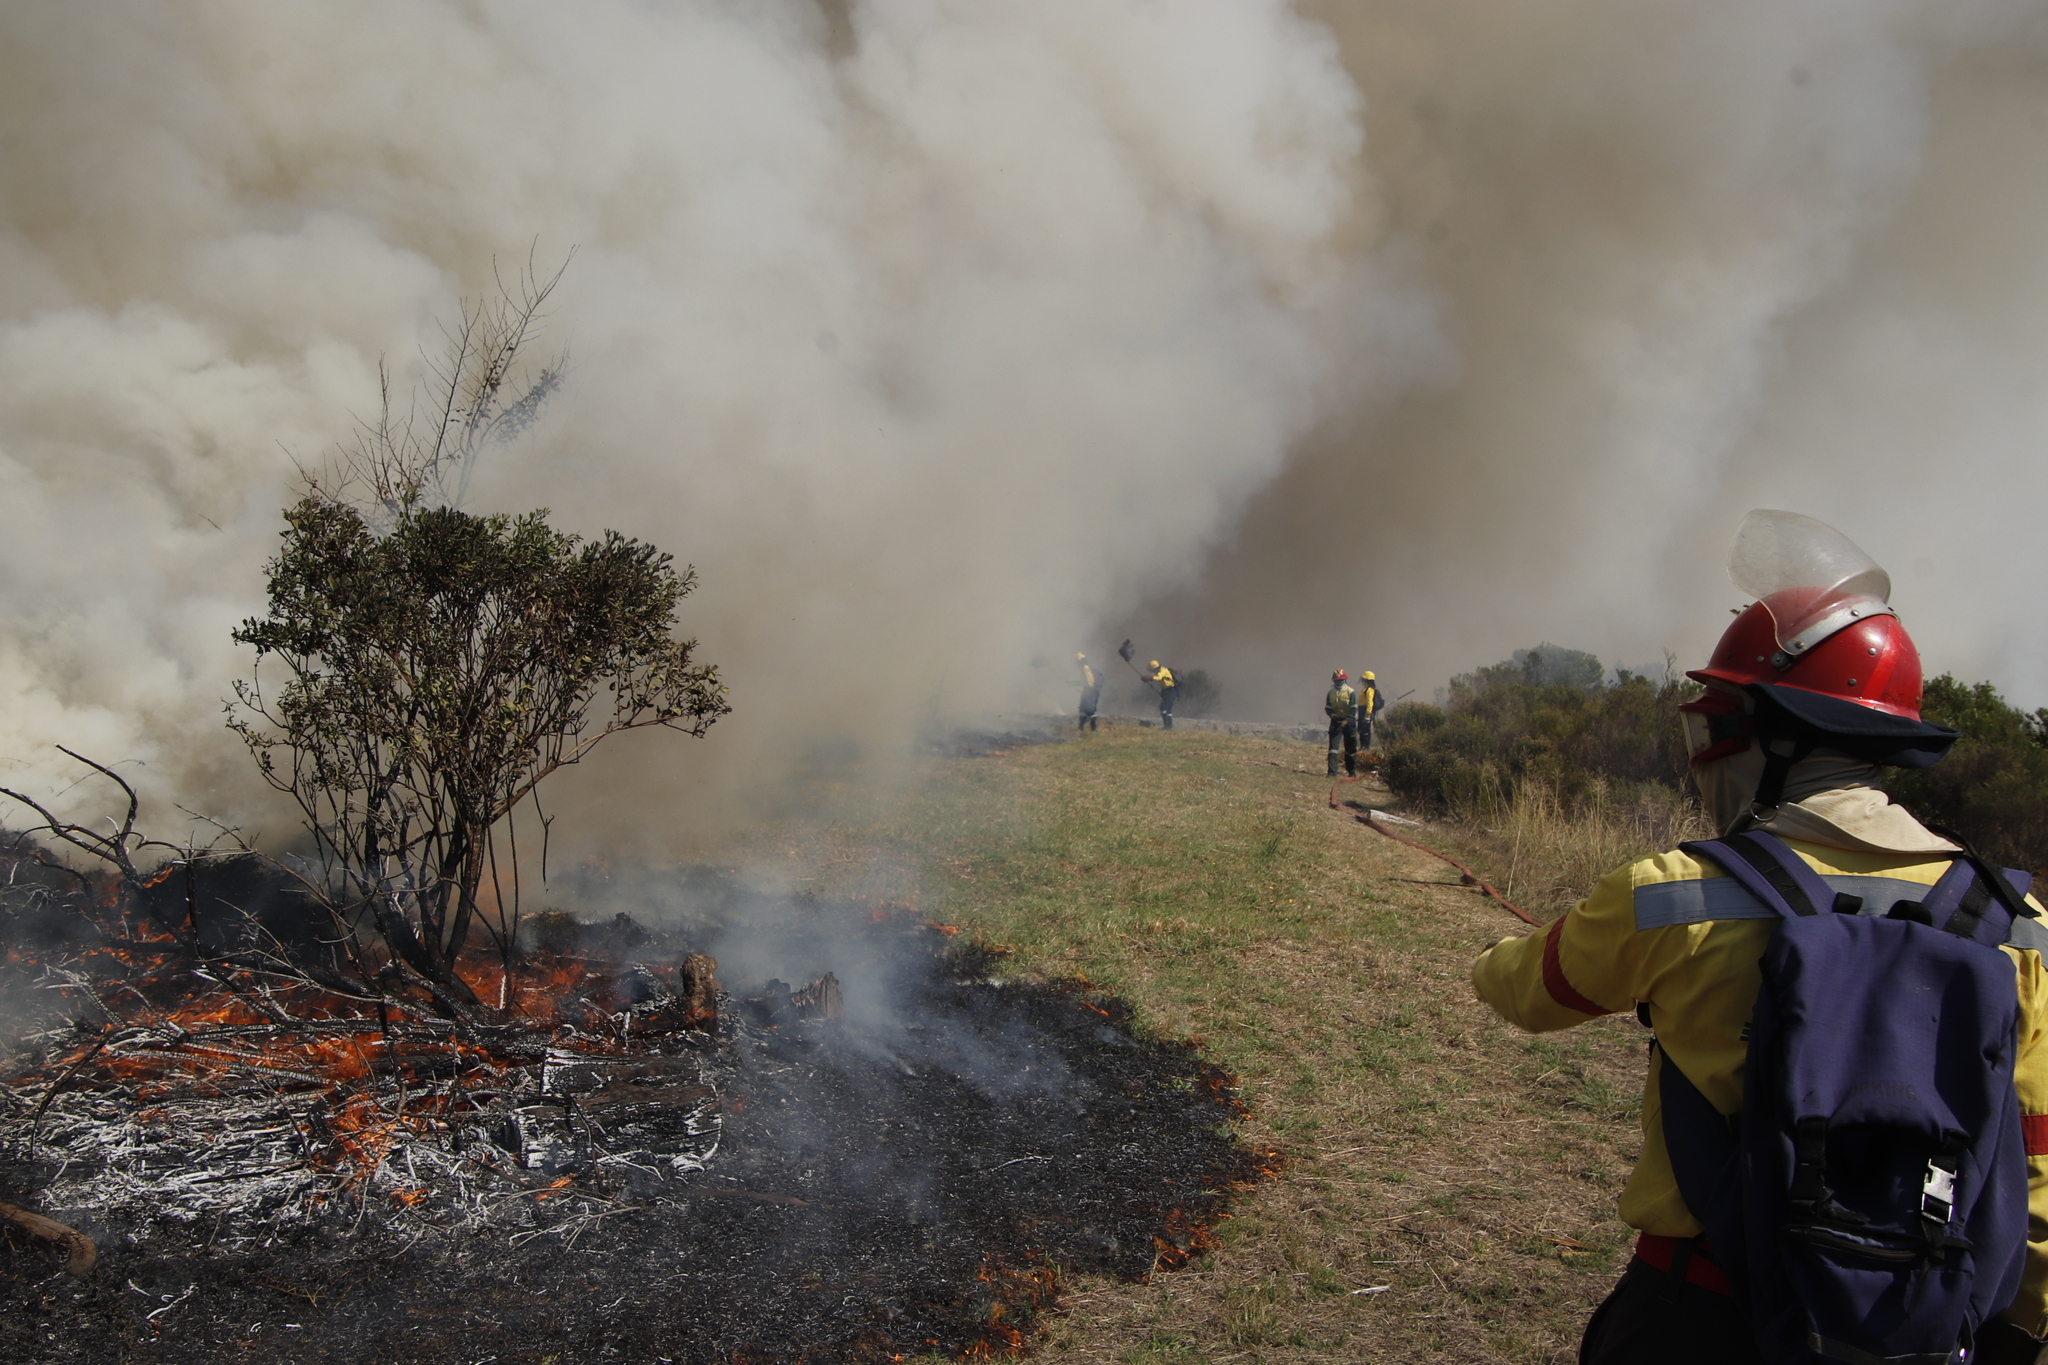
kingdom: Plantae
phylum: Tracheophyta
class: Magnoliopsida
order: Asterales
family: Asteraceae
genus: Osteospermum
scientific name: Osteospermum moniliferum
